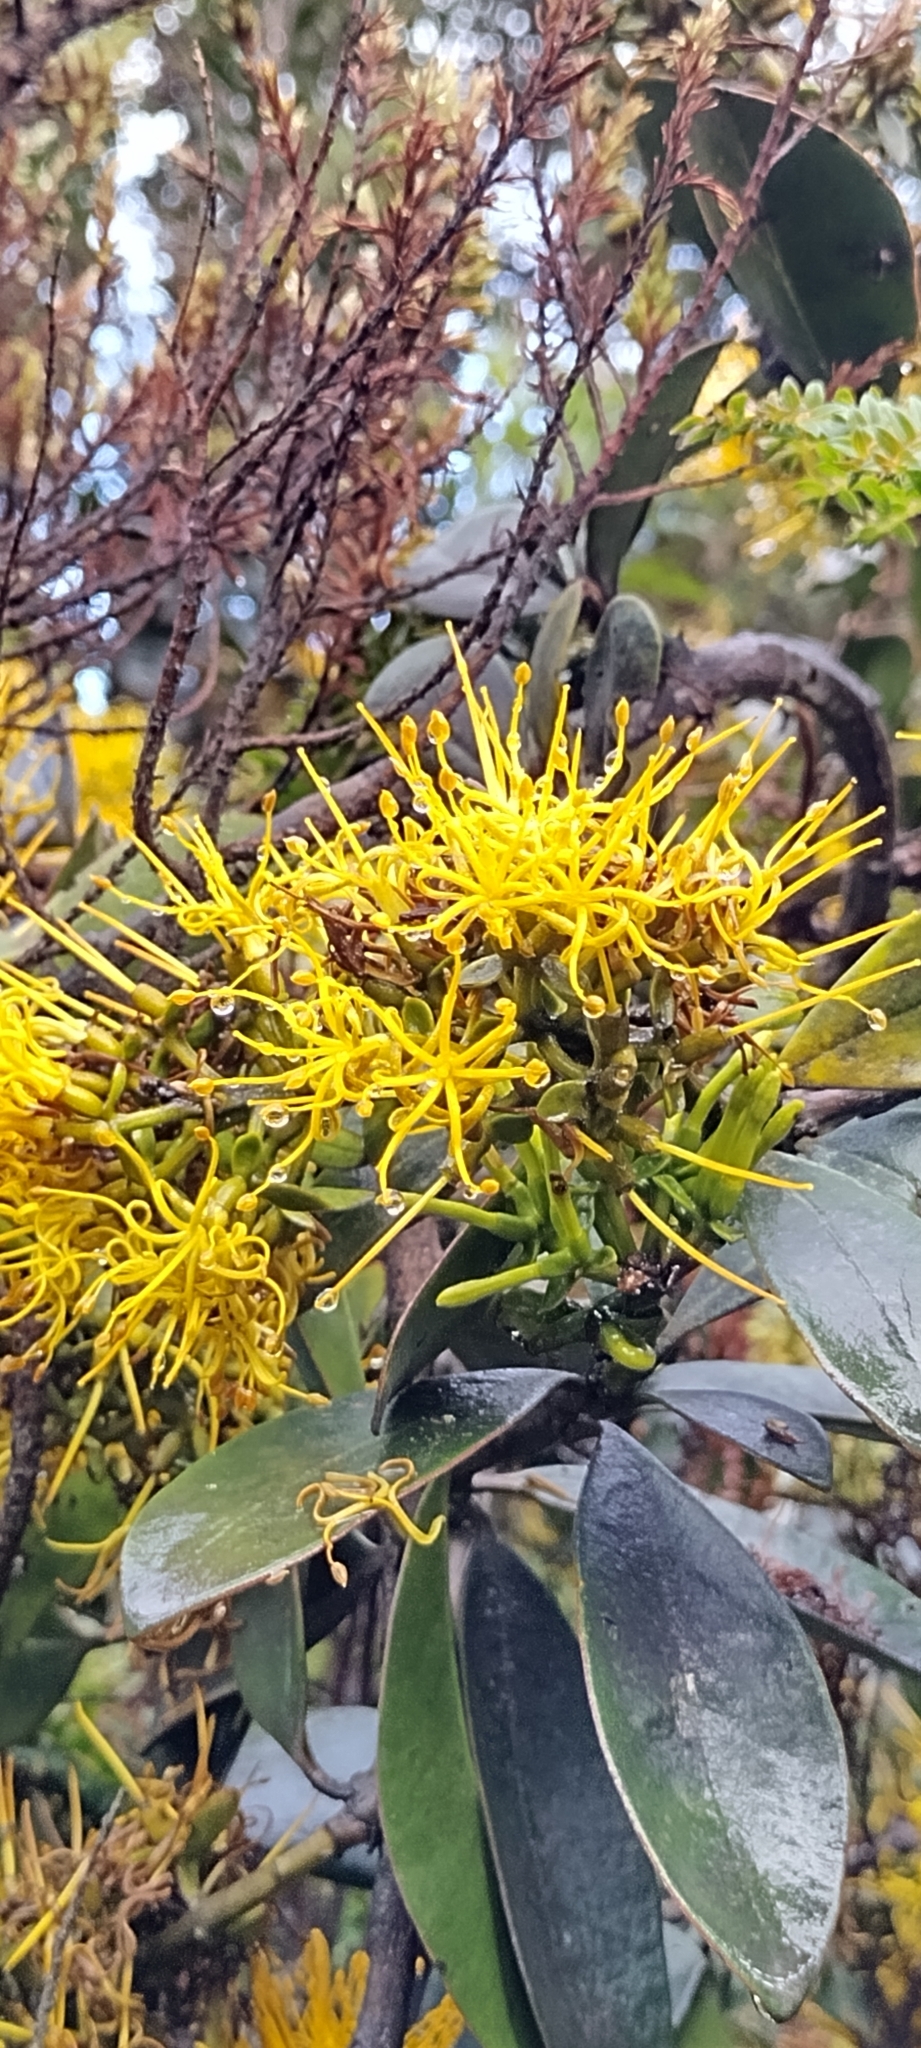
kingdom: Plantae
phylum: Tracheophyta
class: Magnoliopsida
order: Santalales
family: Loranthaceae
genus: Gaiadendron
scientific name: Gaiadendron punctatum
